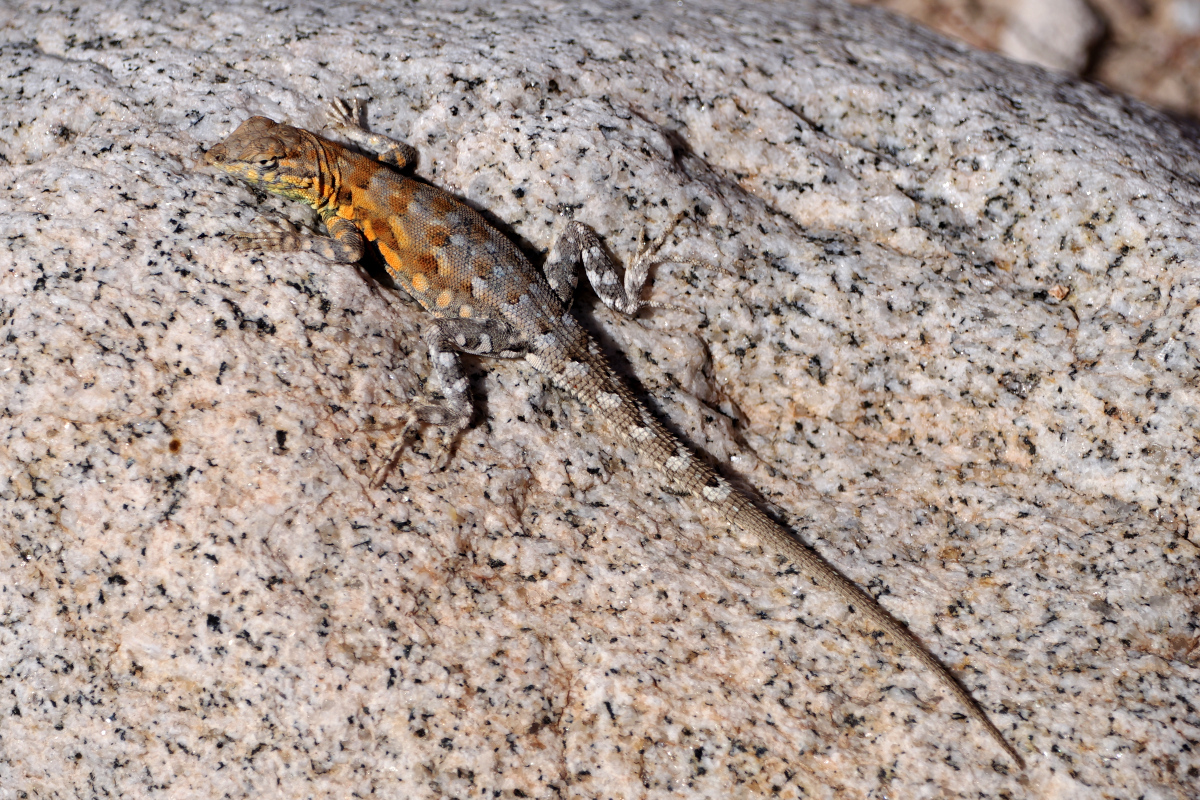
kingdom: Animalia
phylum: Chordata
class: Squamata
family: Phrynosomatidae
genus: Uta
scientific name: Uta stansburiana
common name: Side-blotched lizard
